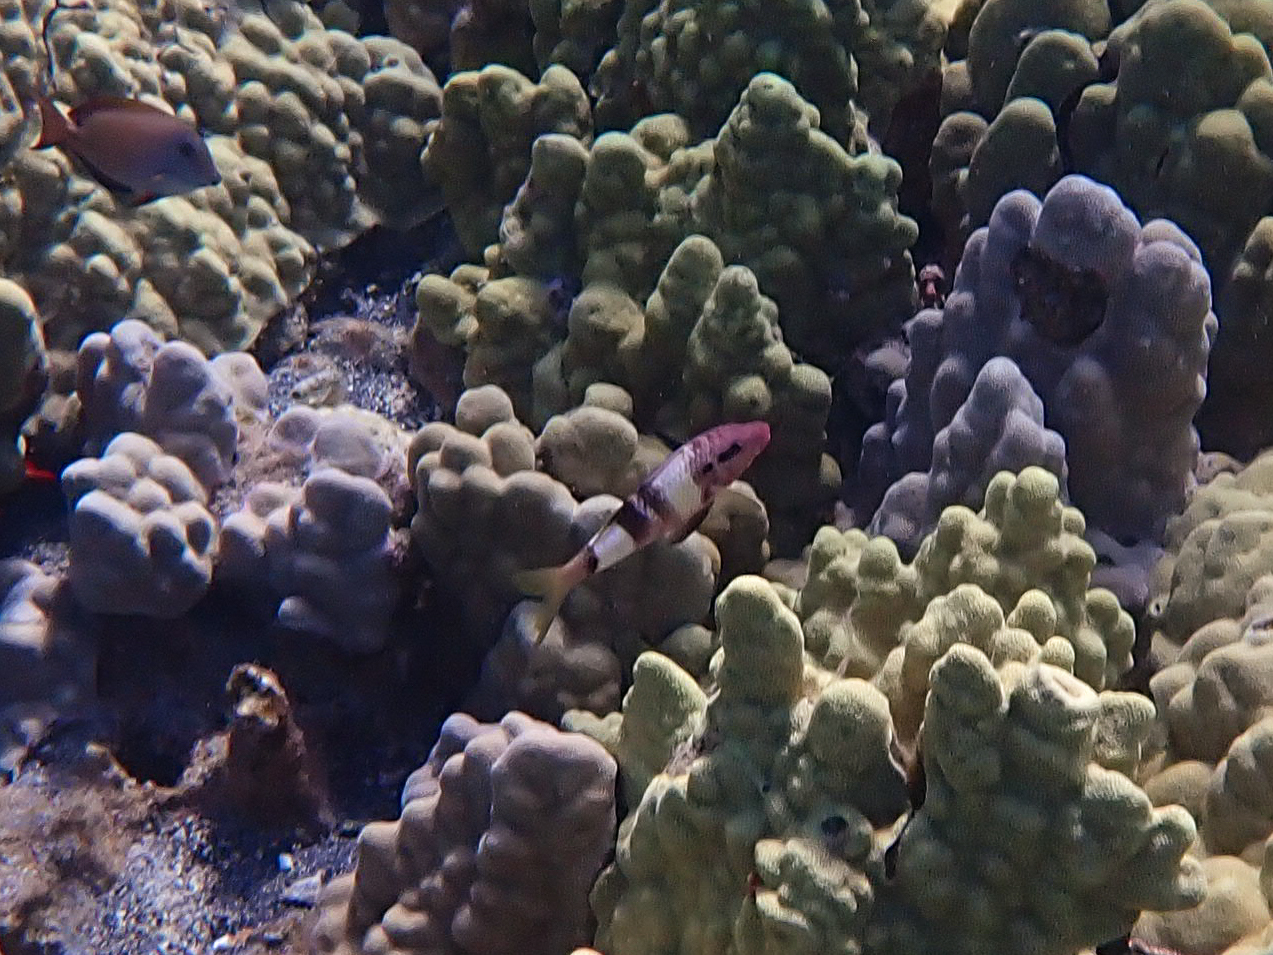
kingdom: Animalia
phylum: Chordata
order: Perciformes
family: Mullidae
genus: Parupeneus
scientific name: Parupeneus multifasciatus
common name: Manybar goatfish
